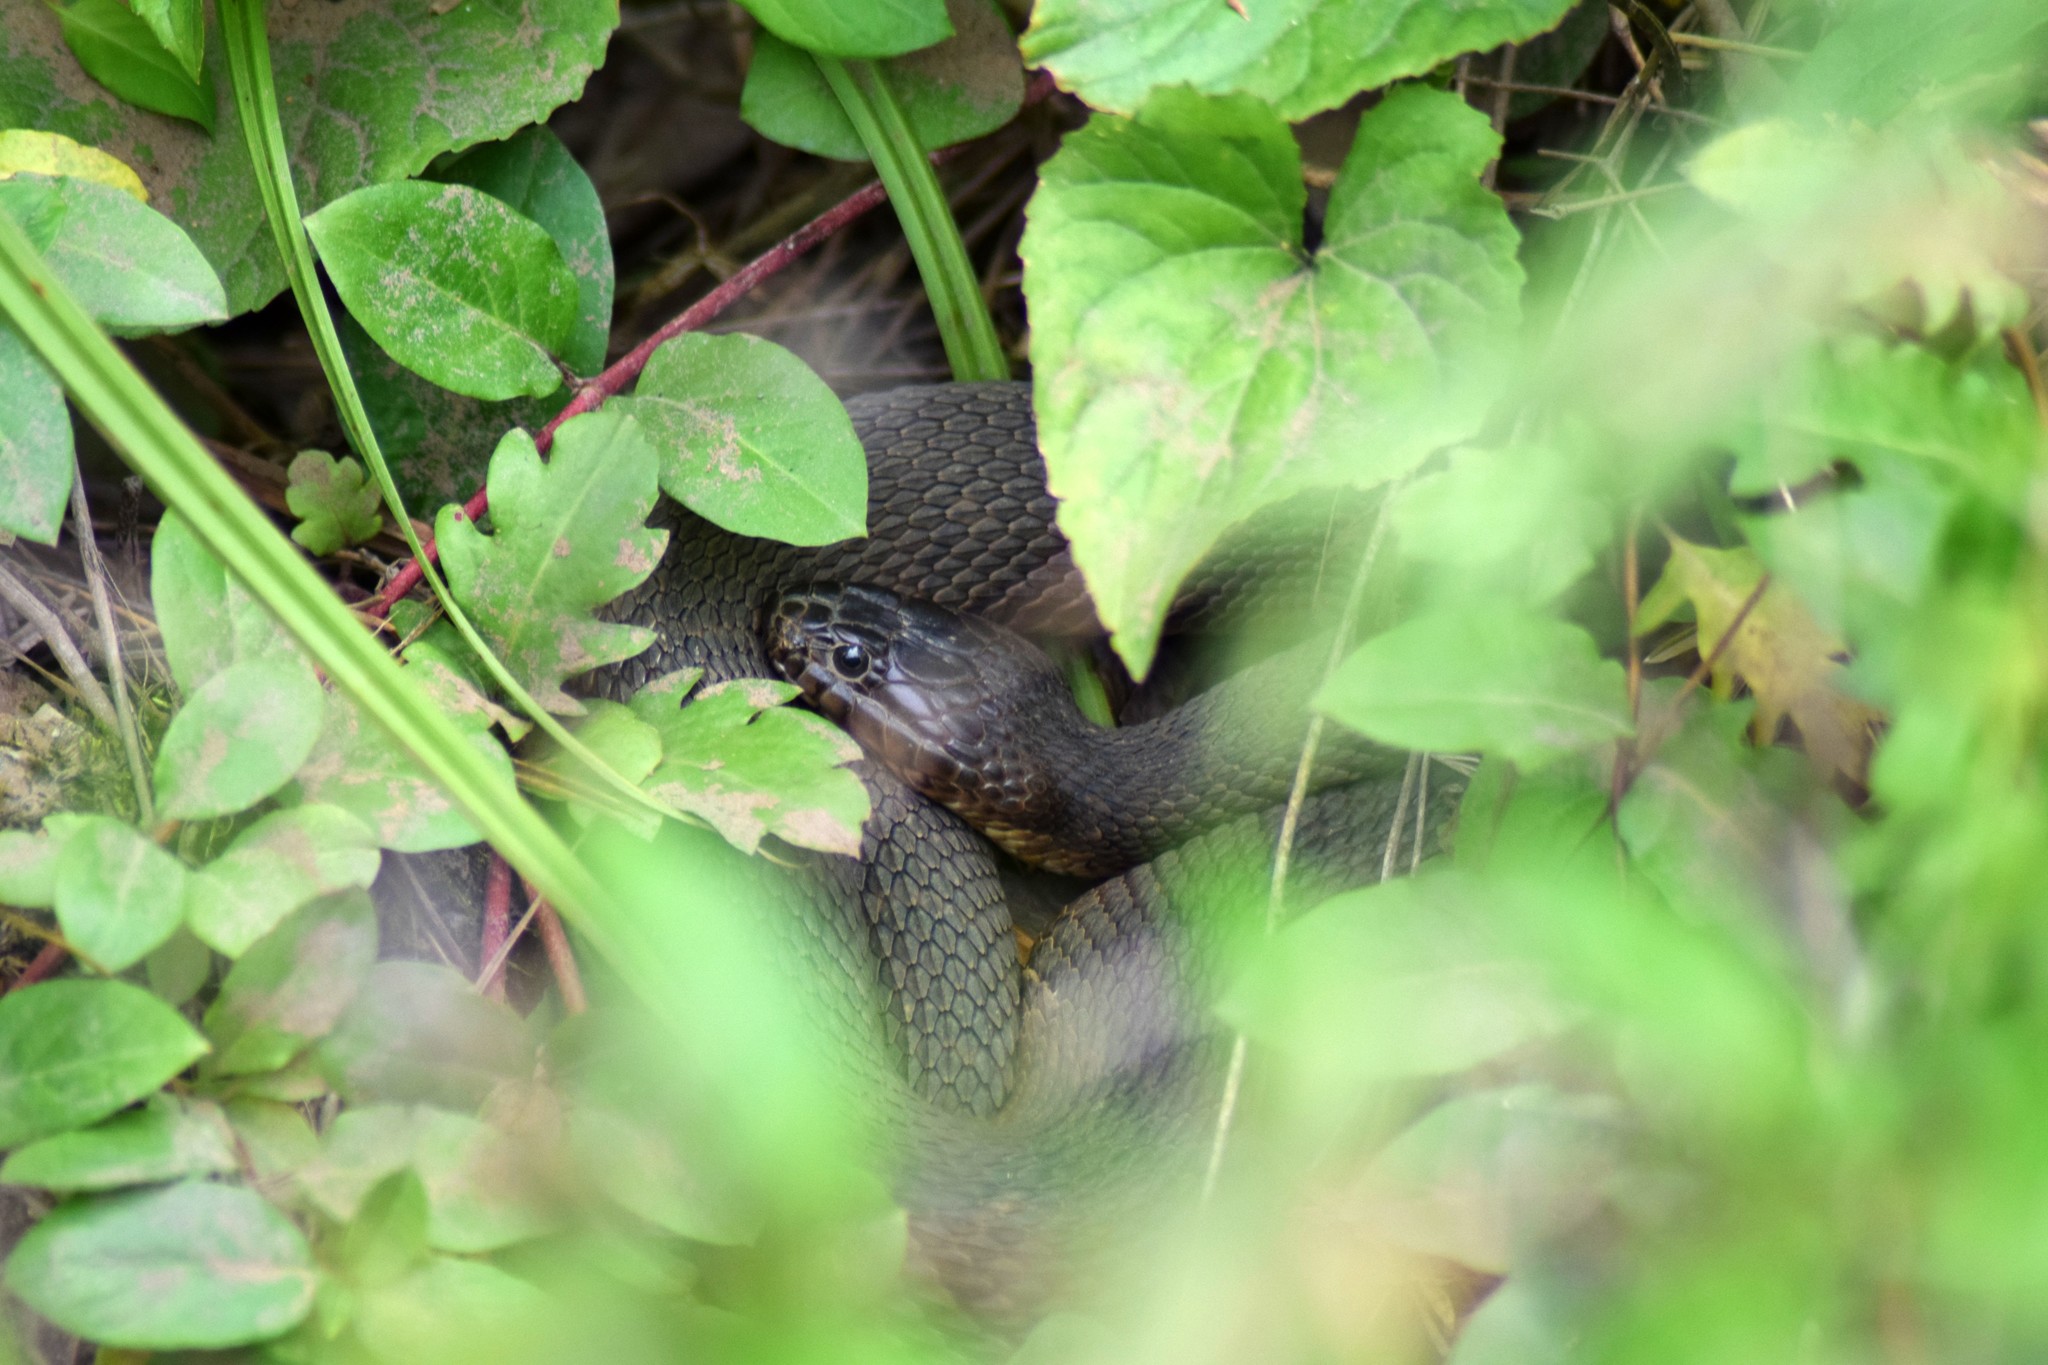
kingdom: Animalia
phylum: Chordata
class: Squamata
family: Colubridae
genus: Nerodia
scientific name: Nerodia sipedon
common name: Northern water snake
